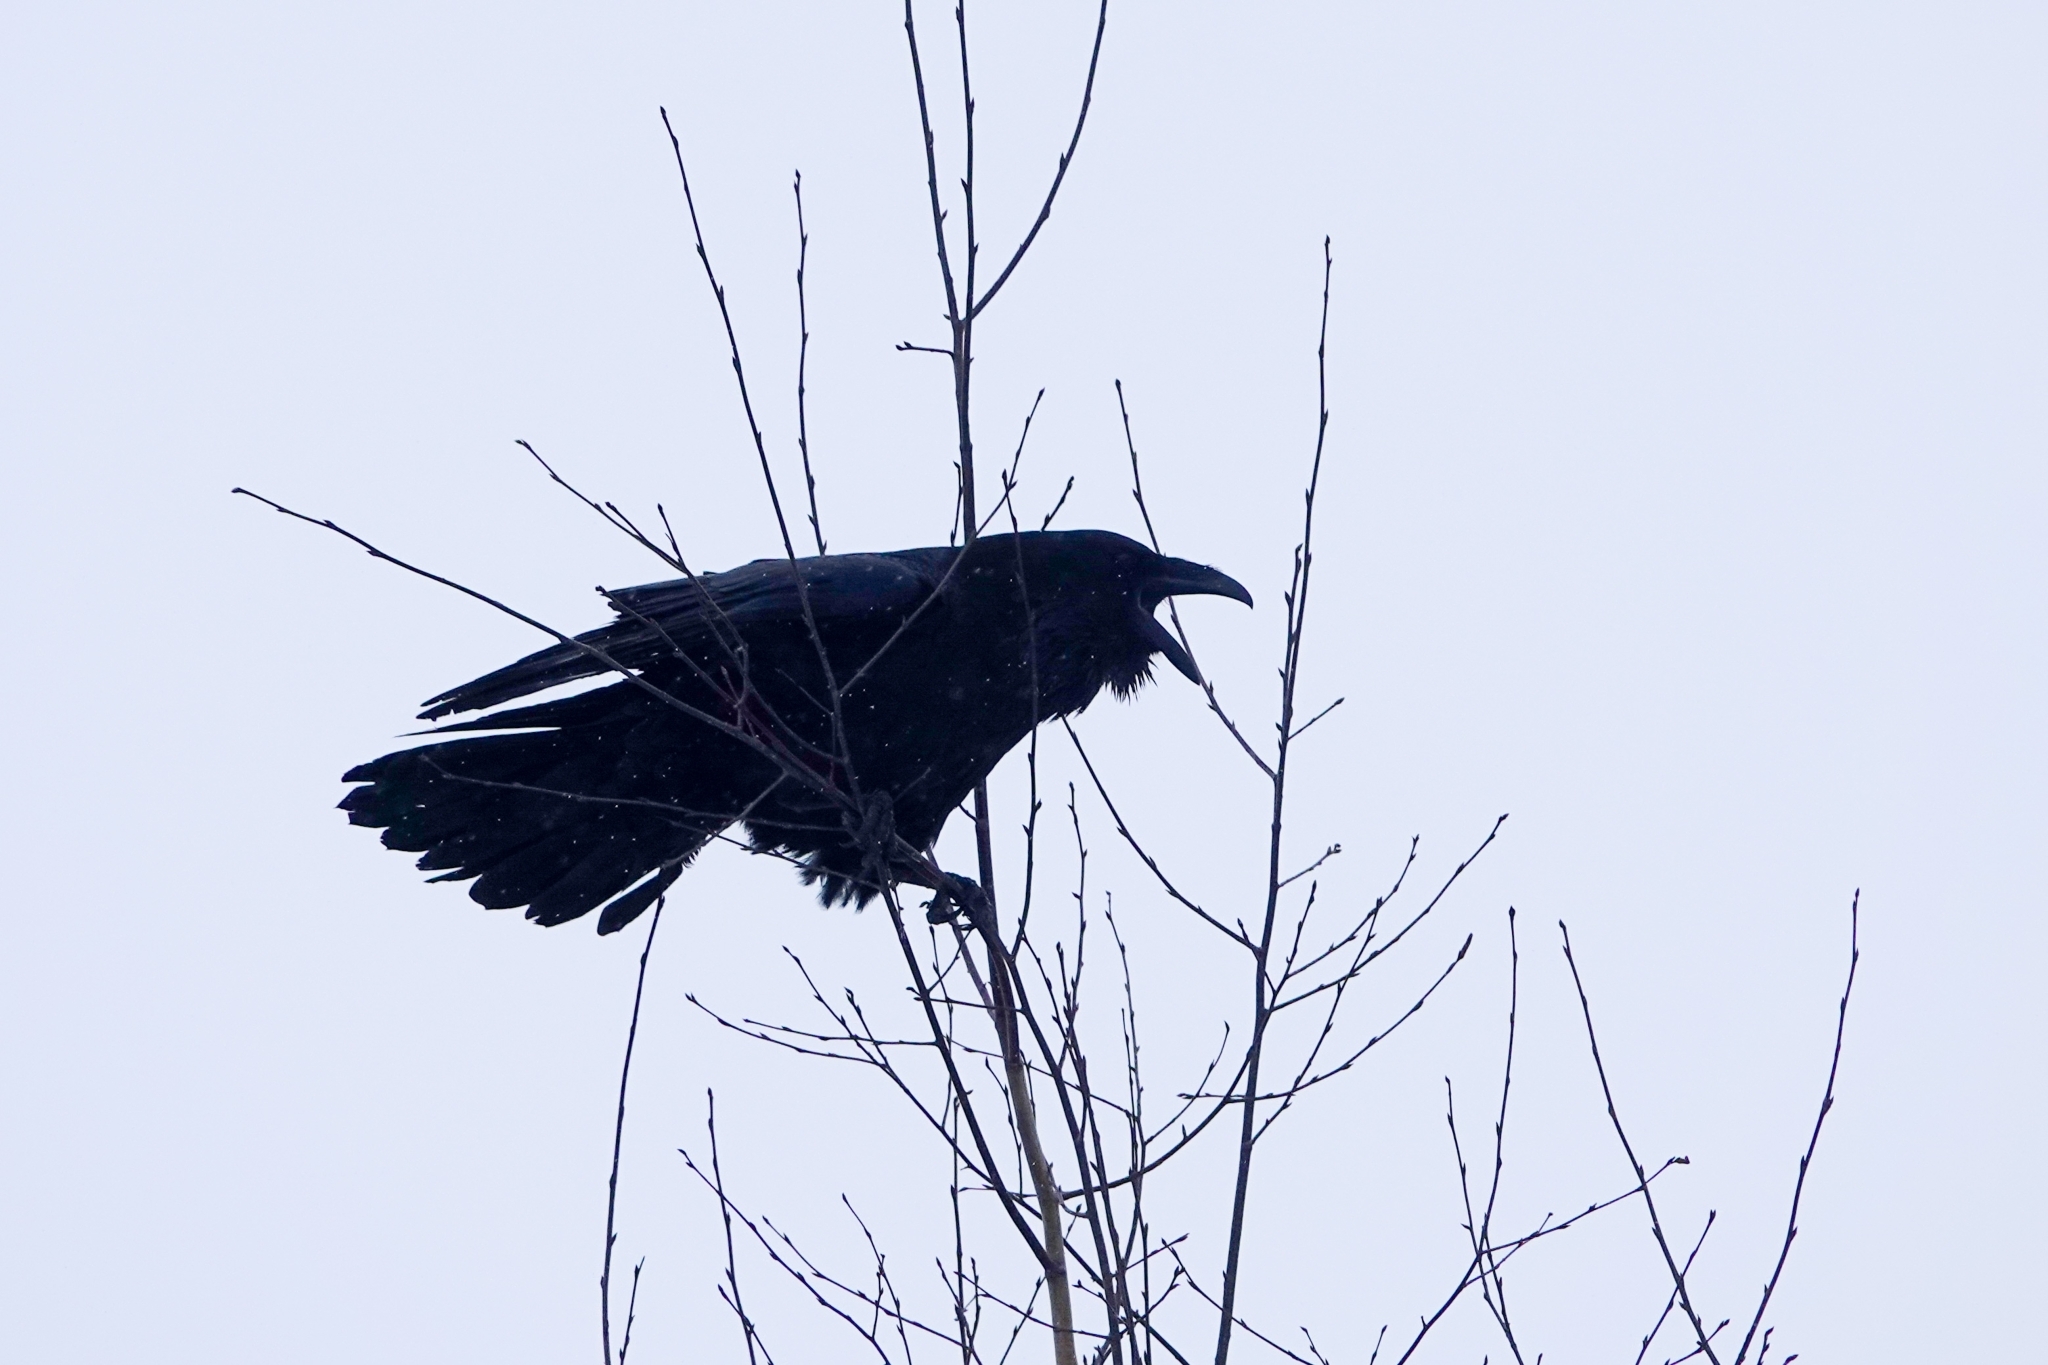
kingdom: Animalia
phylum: Chordata
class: Aves
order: Passeriformes
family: Corvidae
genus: Corvus
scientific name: Corvus corax
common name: Common raven
